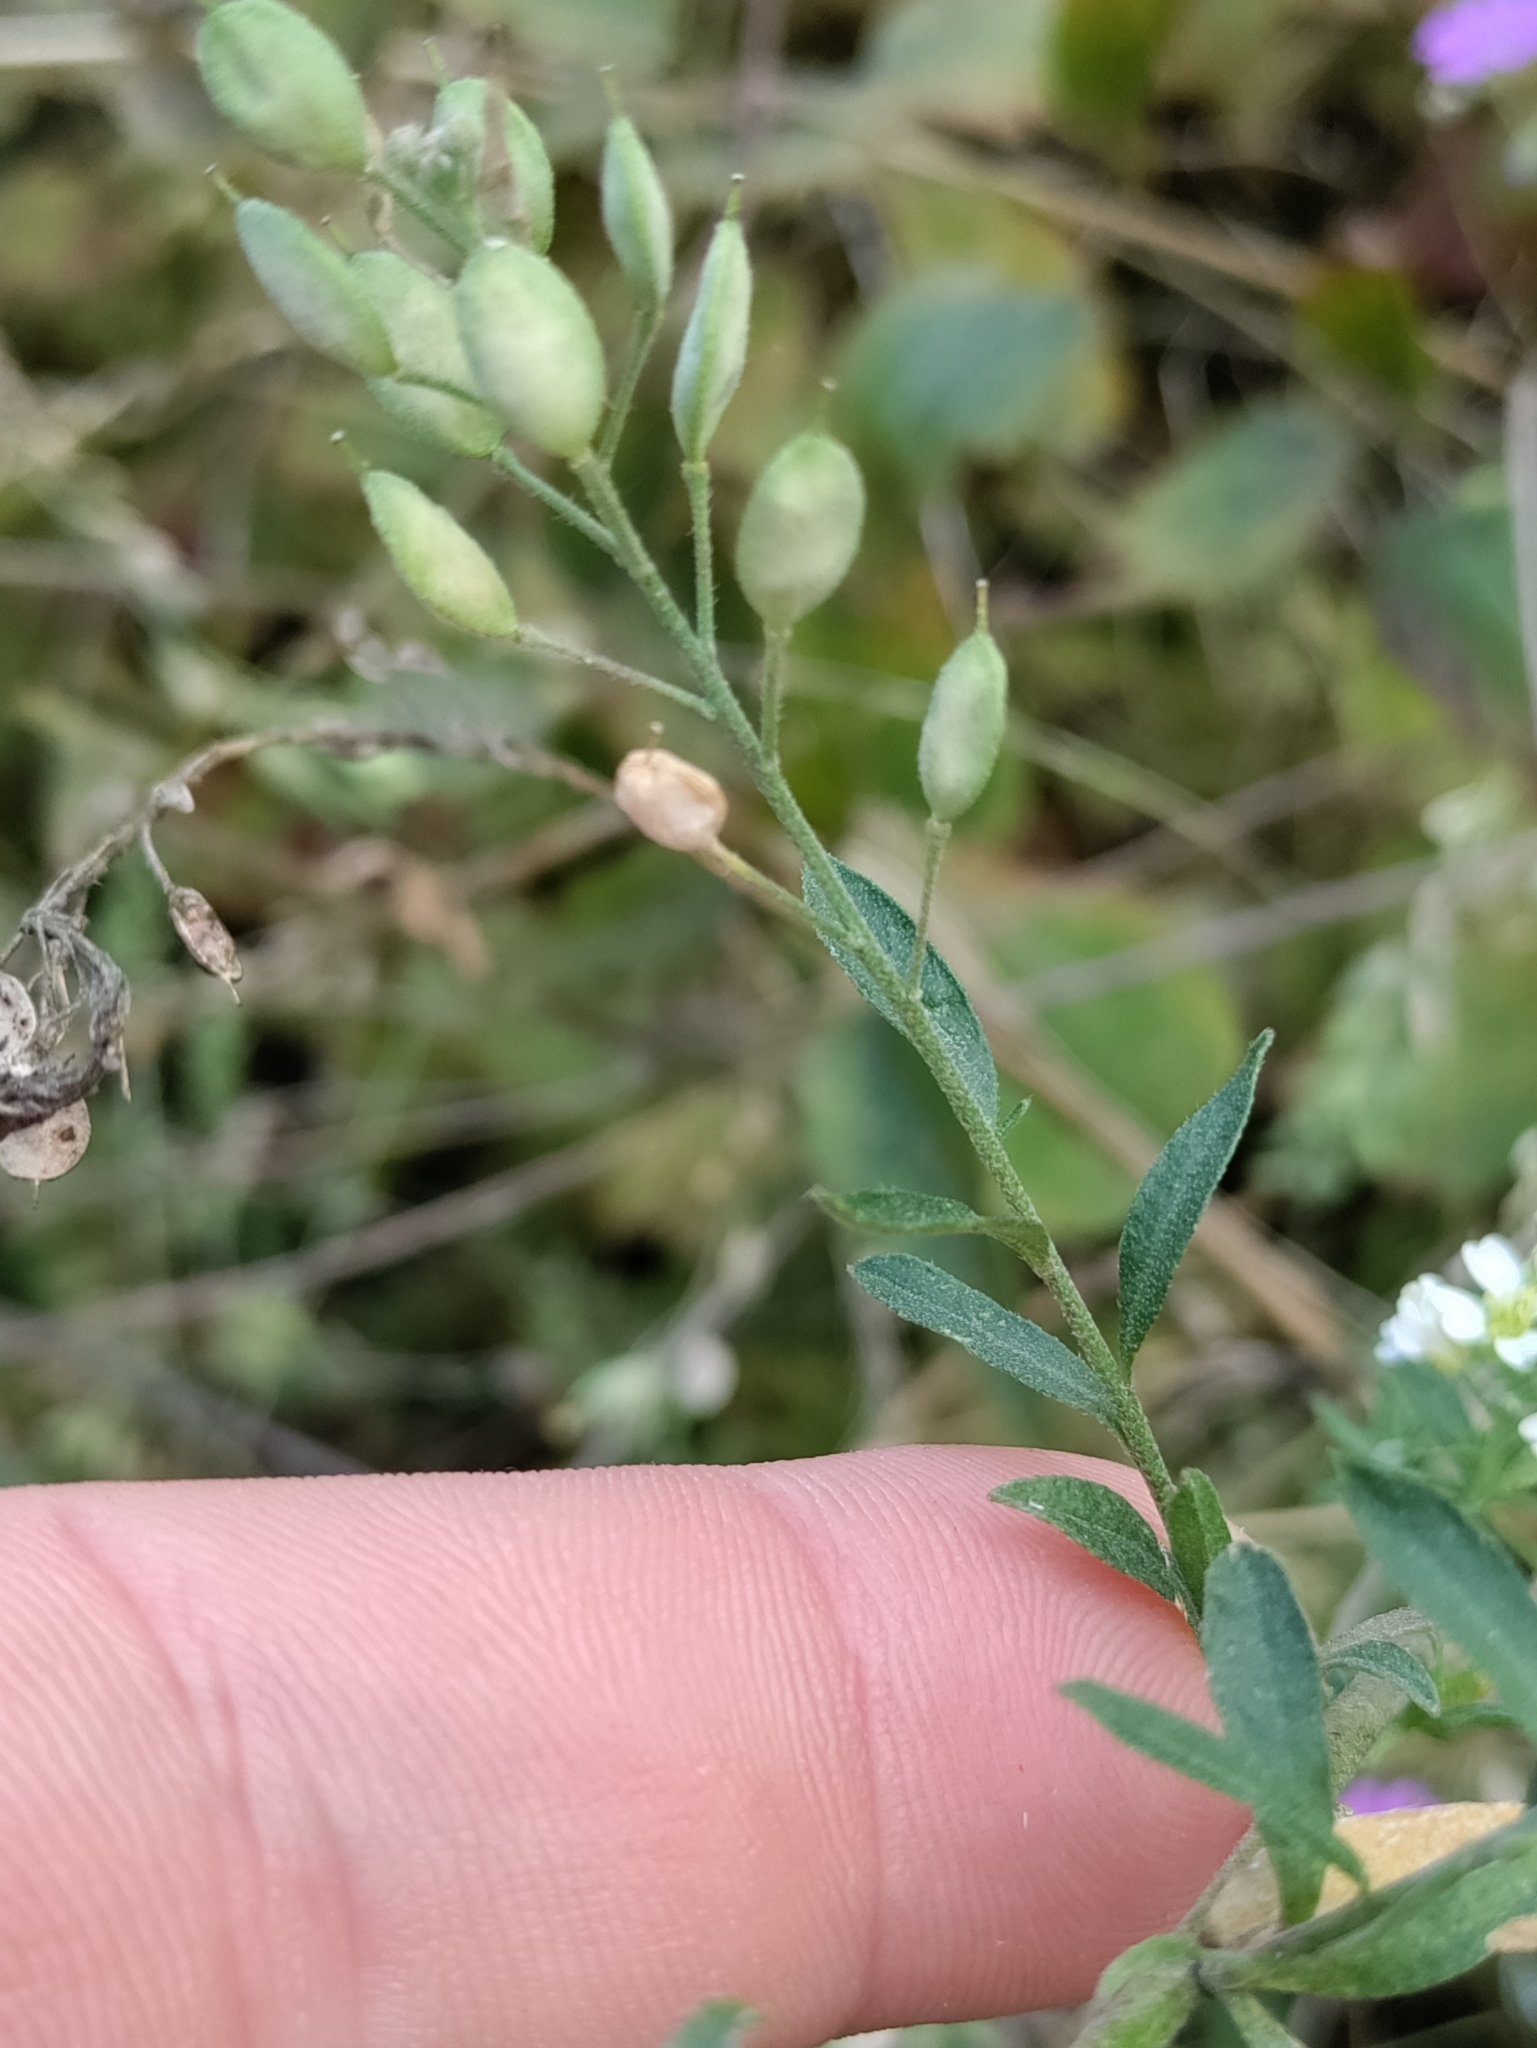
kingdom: Plantae
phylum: Tracheophyta
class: Magnoliopsida
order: Brassicales
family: Brassicaceae
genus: Berteroa
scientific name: Berteroa incana
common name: Hoary alison
